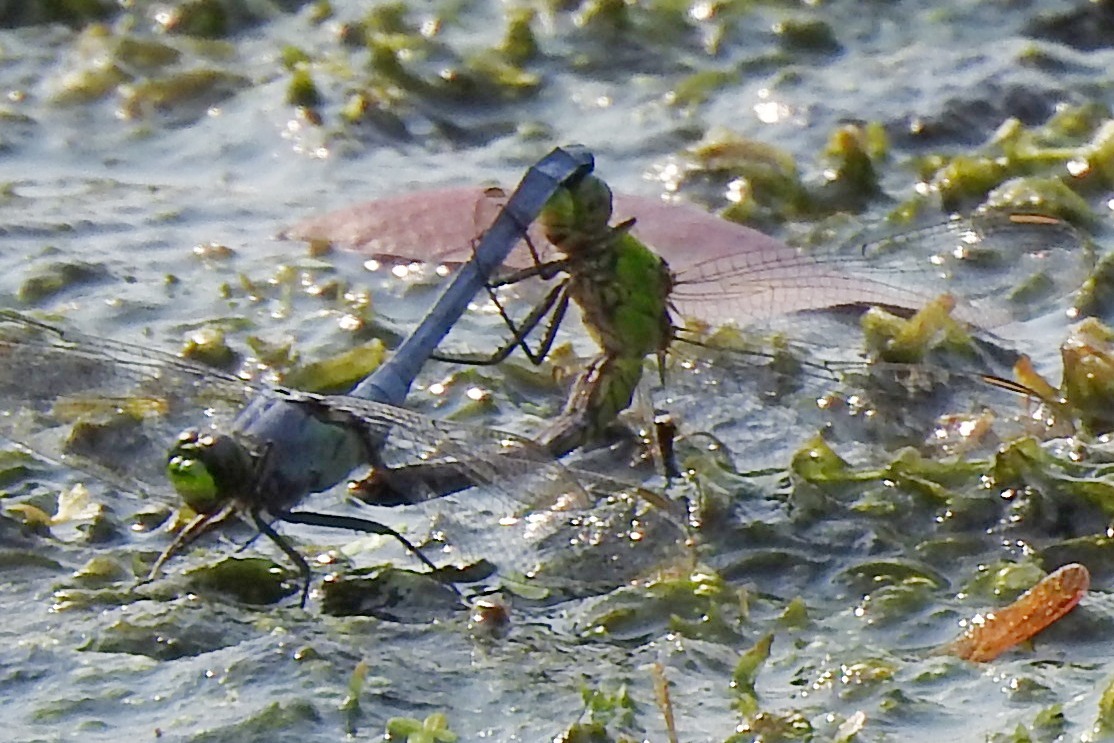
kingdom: Animalia
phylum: Arthropoda
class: Insecta
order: Odonata
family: Libellulidae
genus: Erythemis
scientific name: Erythemis simplicicollis
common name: Eastern pondhawk
